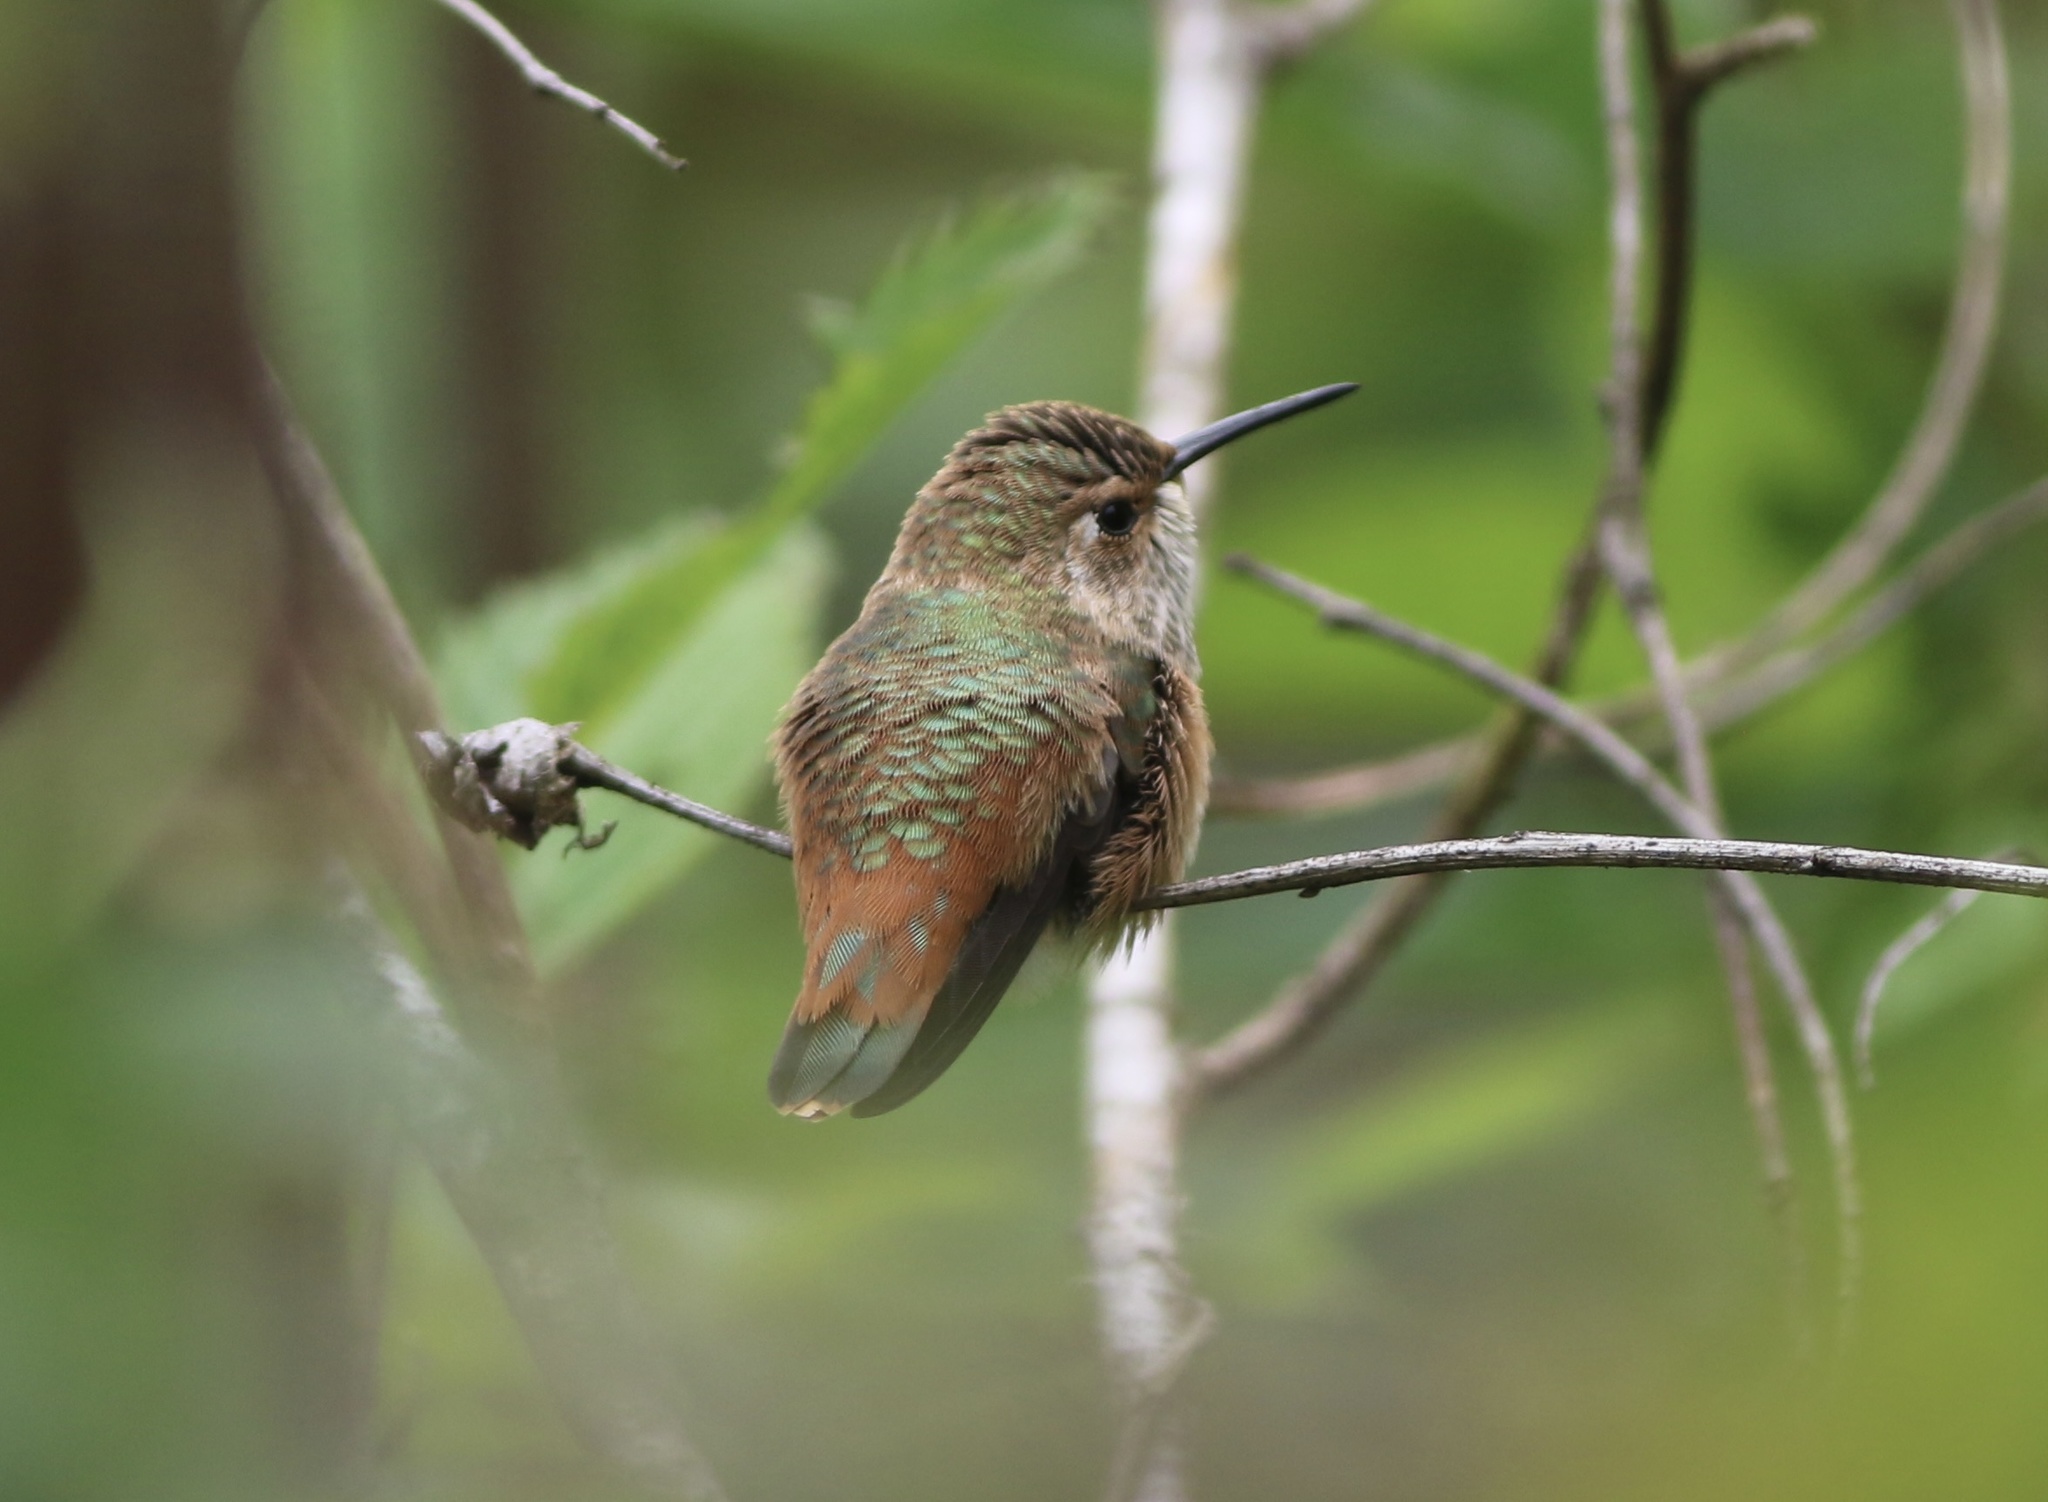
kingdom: Animalia
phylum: Chordata
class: Aves
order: Apodiformes
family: Trochilidae
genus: Selasphorus
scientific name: Selasphorus
